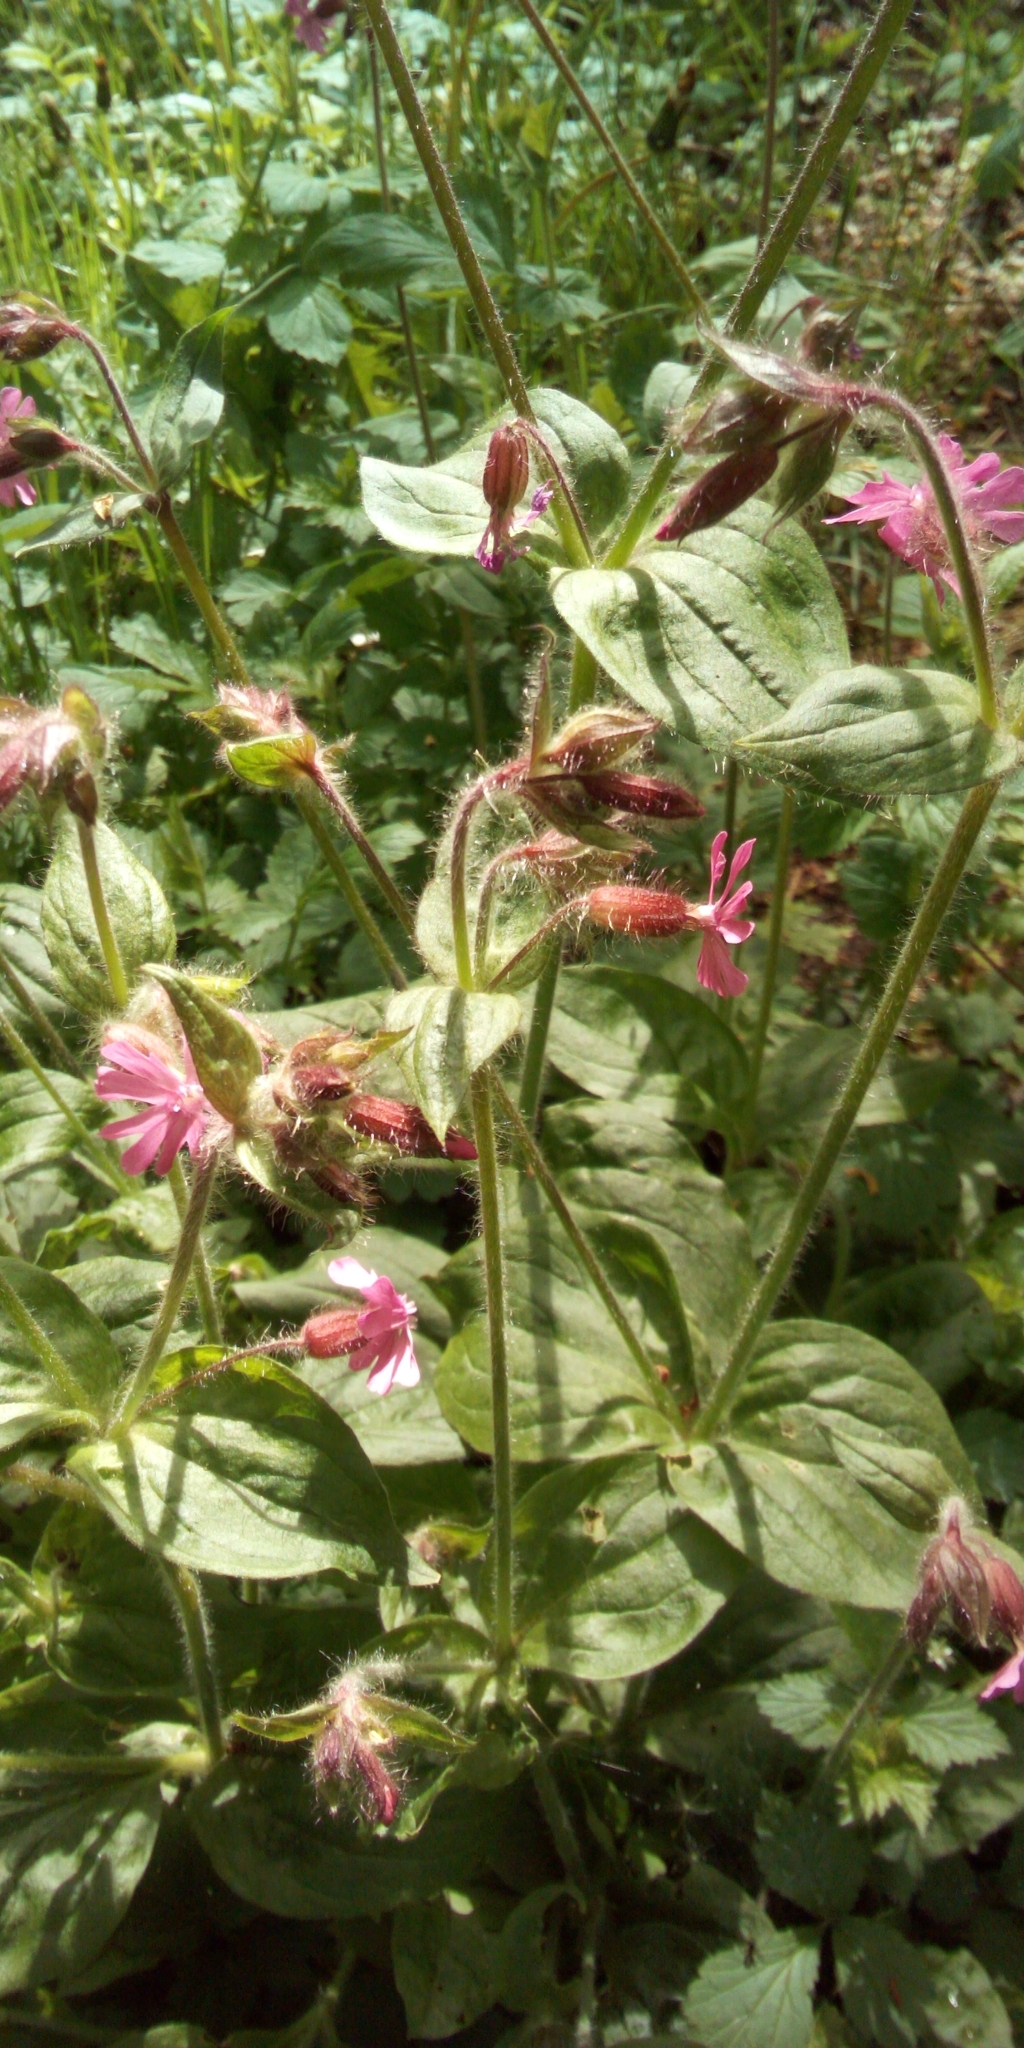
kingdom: Plantae
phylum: Tracheophyta
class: Magnoliopsida
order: Caryophyllales
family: Caryophyllaceae
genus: Silene
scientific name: Silene dioica
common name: Red campion
